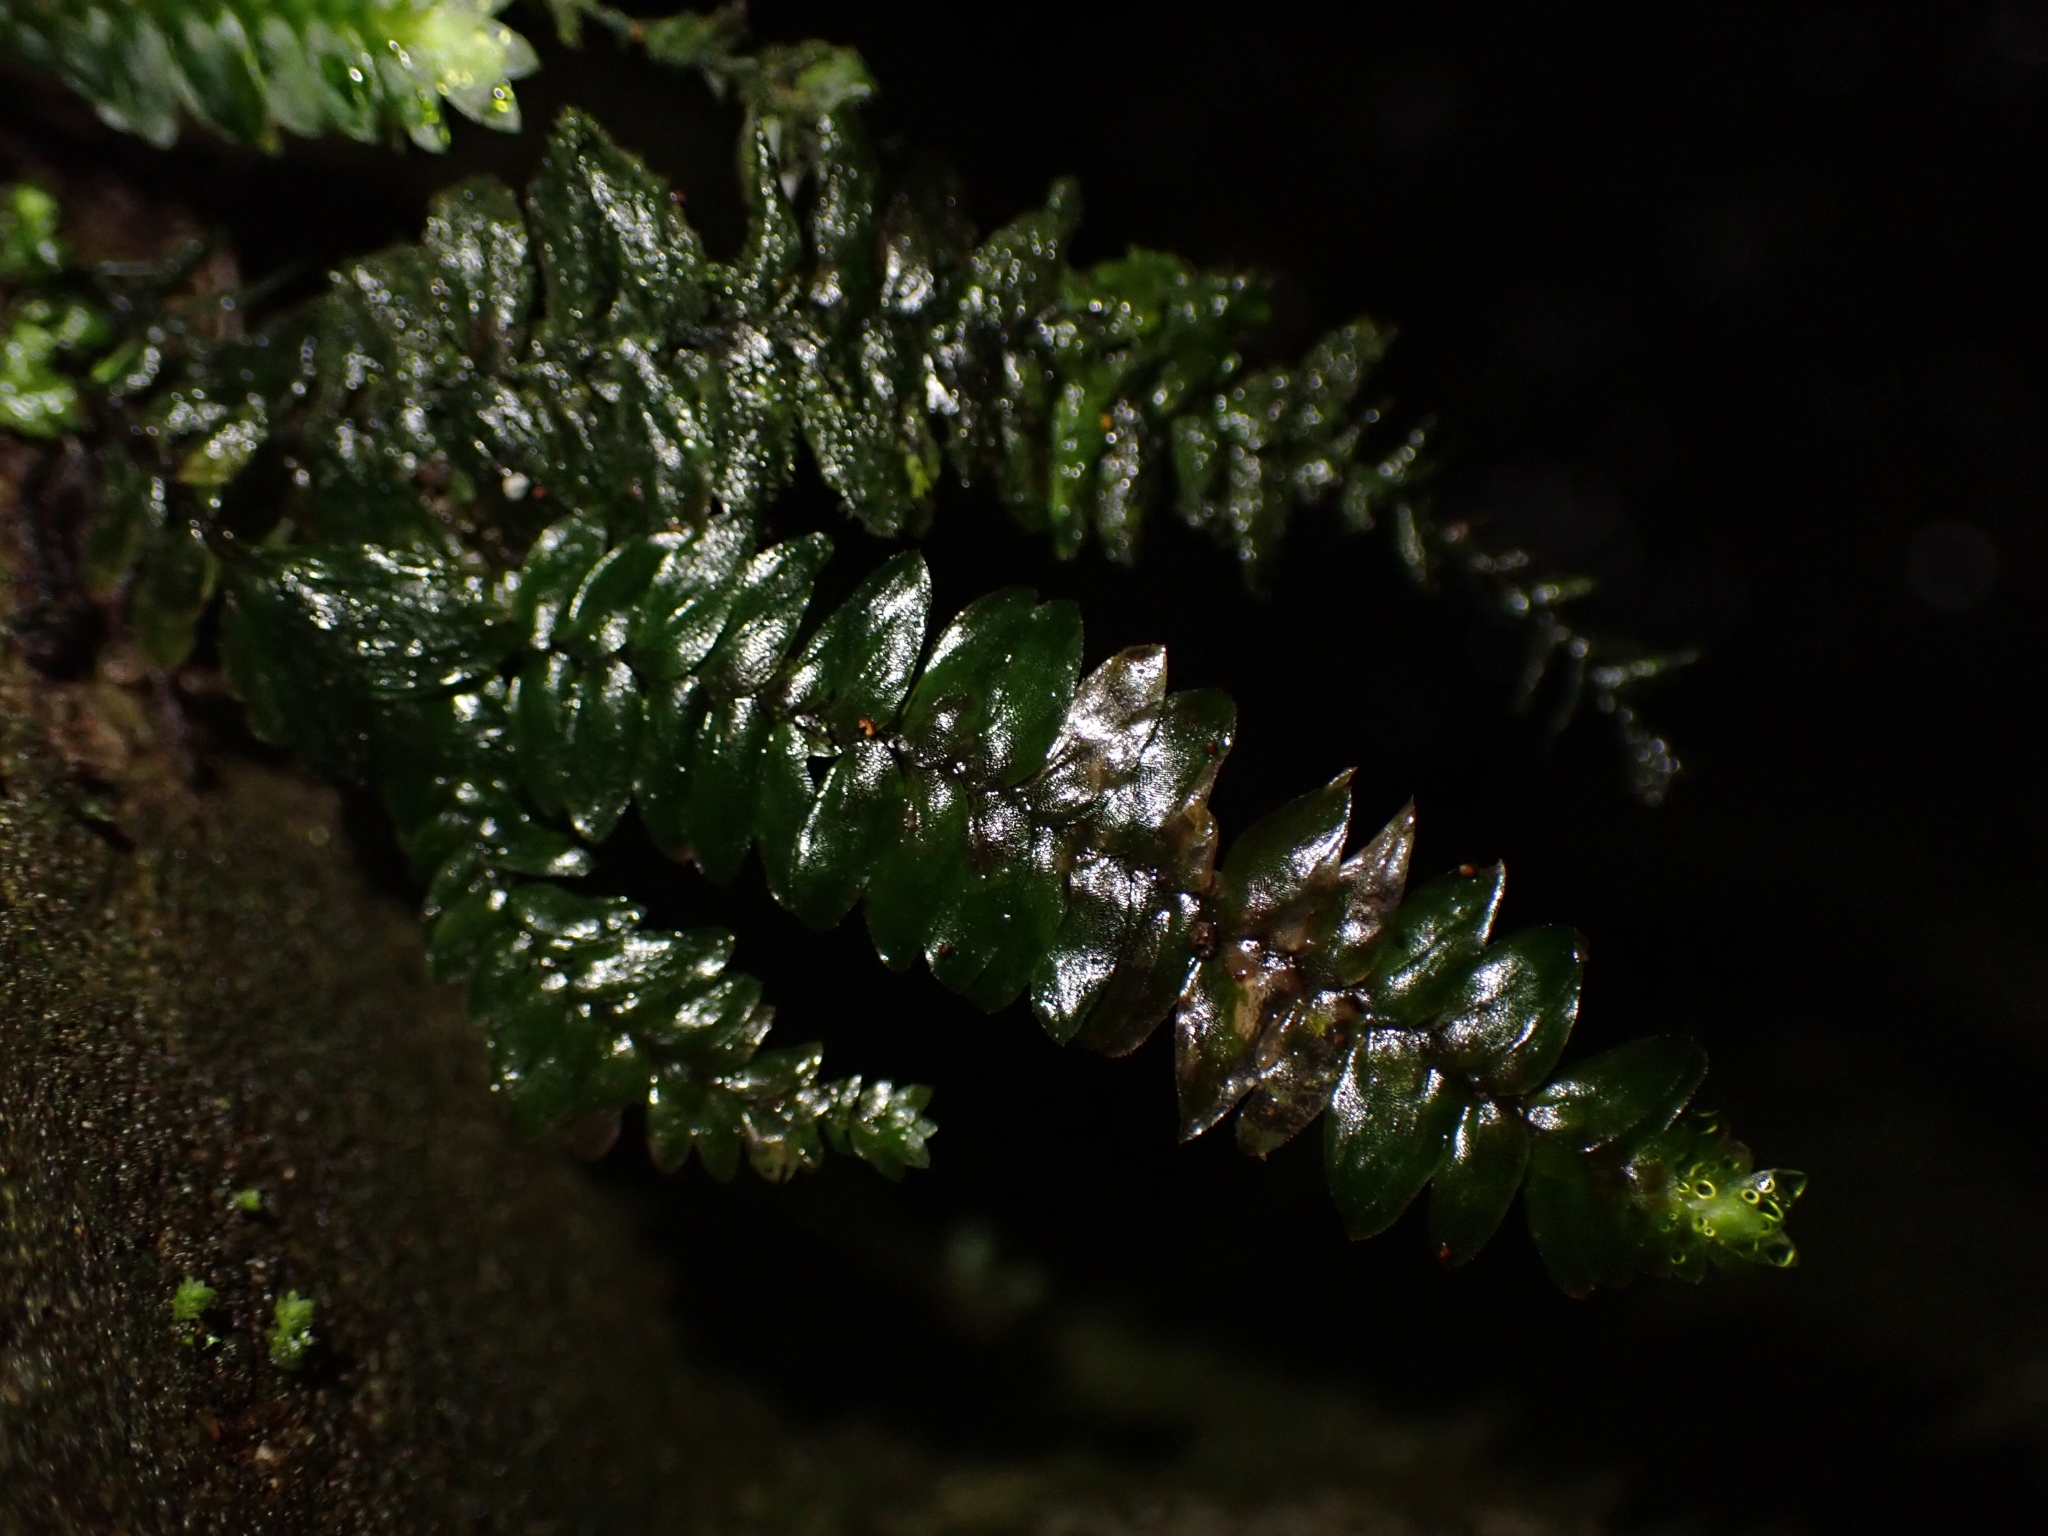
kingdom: Plantae
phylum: Bryophyta
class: Bryopsida
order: Hypopterygiales
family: Hypopterygiaceae
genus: Cyathophorum
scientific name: Cyathophorum bulbosum
